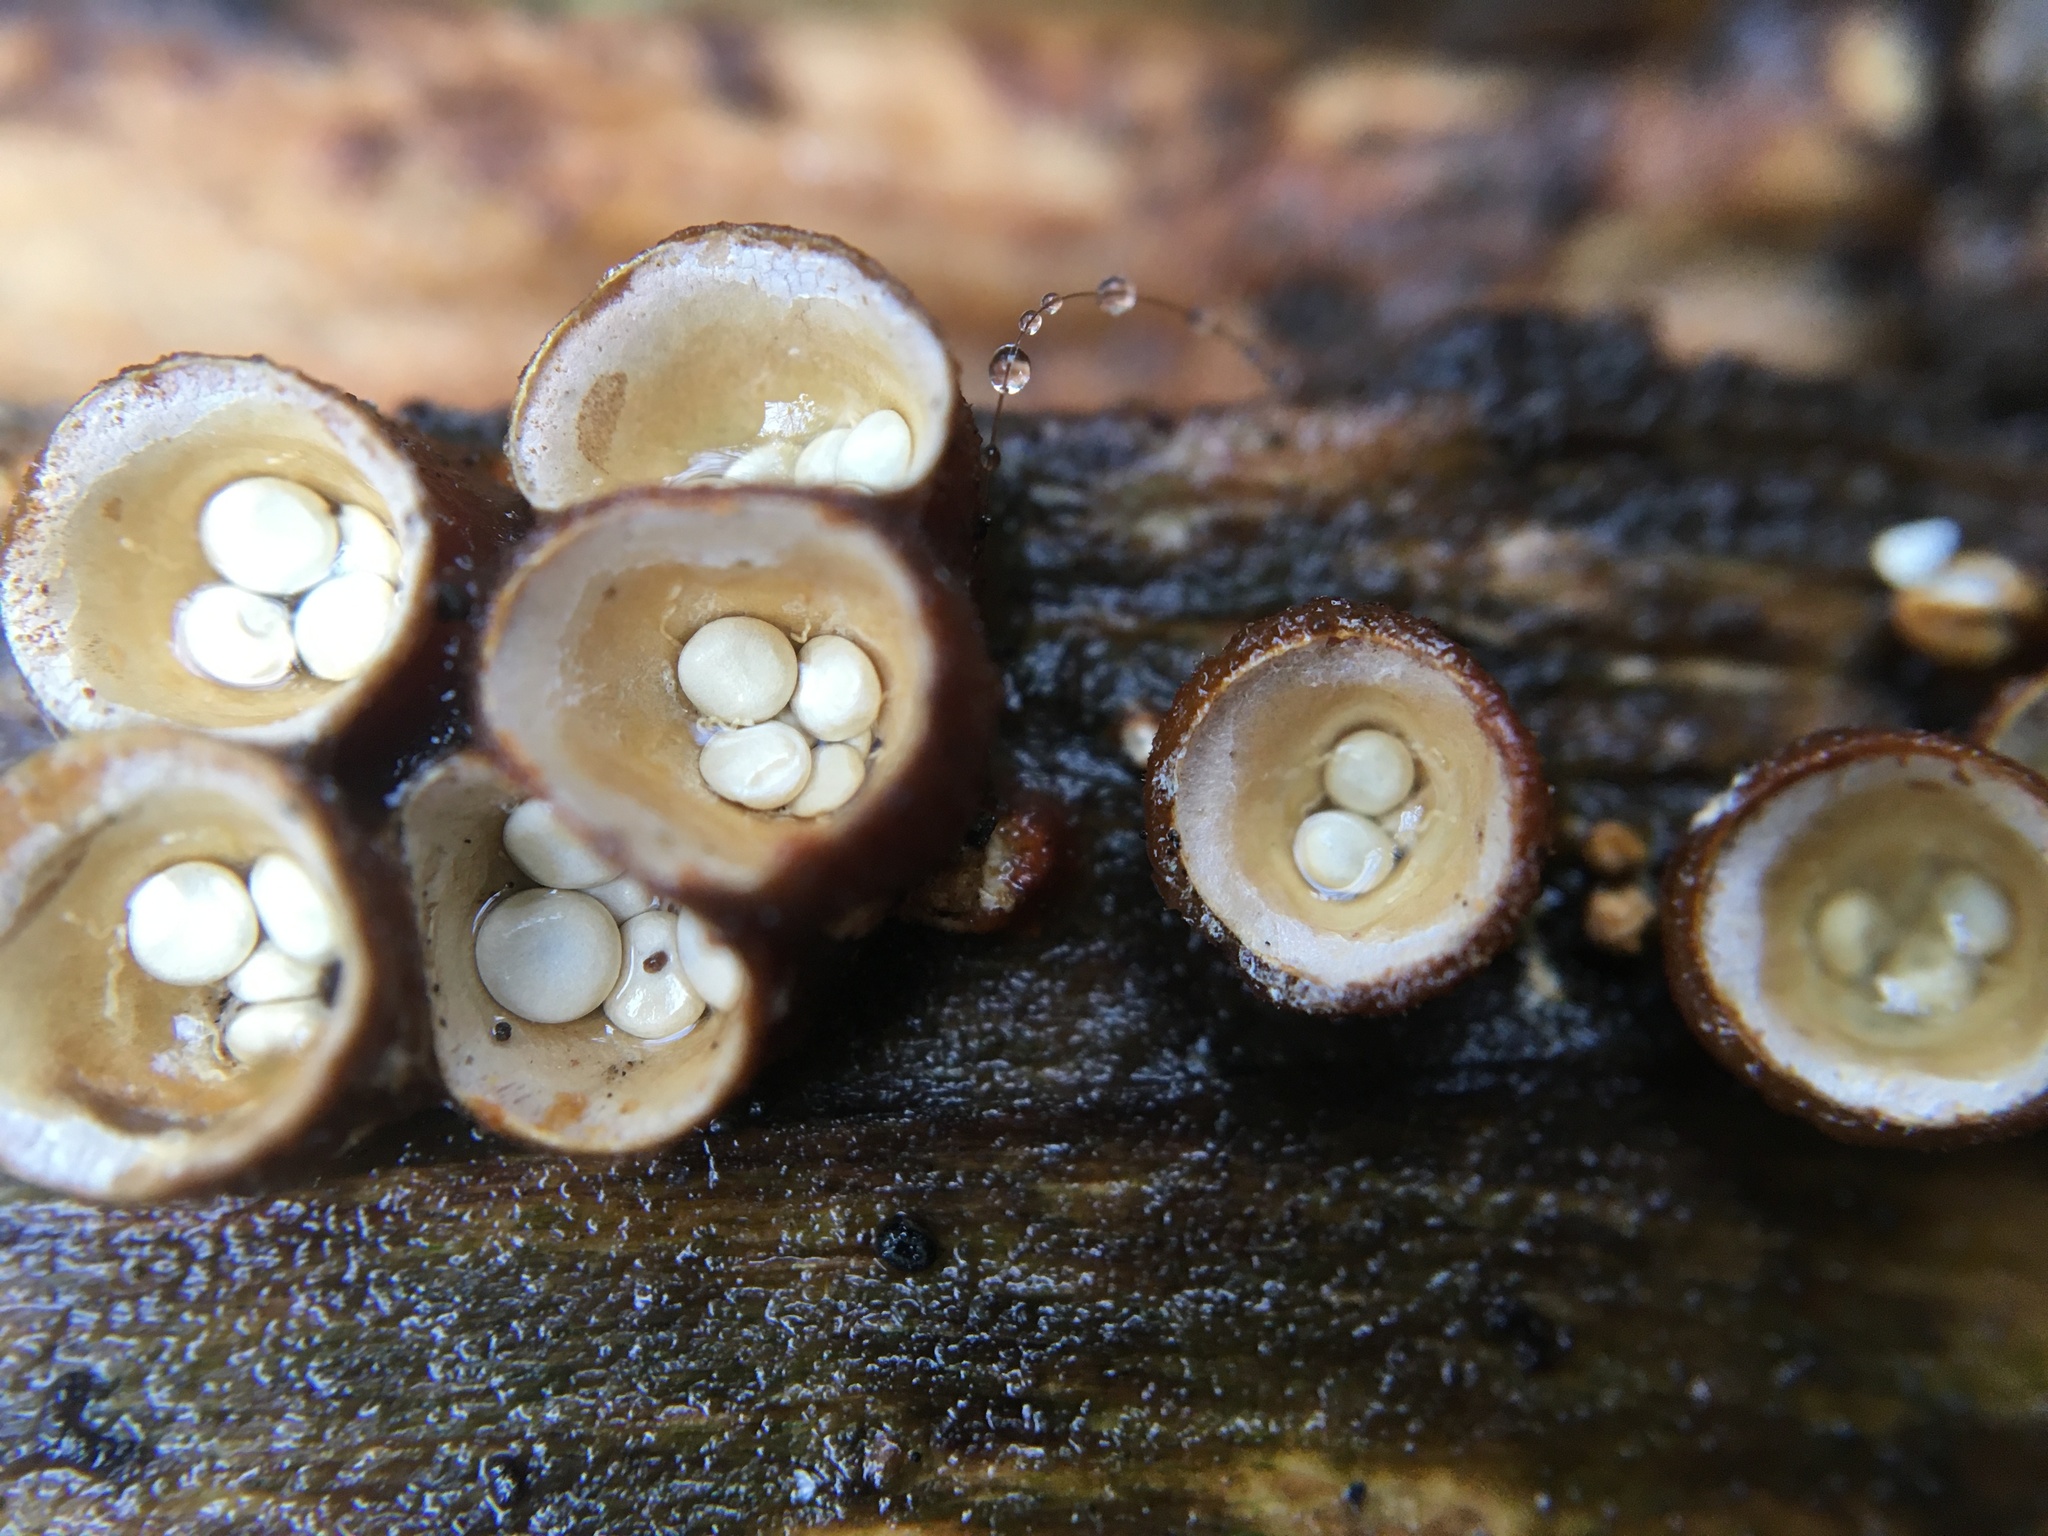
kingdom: Fungi
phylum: Basidiomycota
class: Agaricomycetes
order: Agaricales
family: Nidulariaceae
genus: Crucibulum
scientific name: Crucibulum laeve
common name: Common bird's nest
